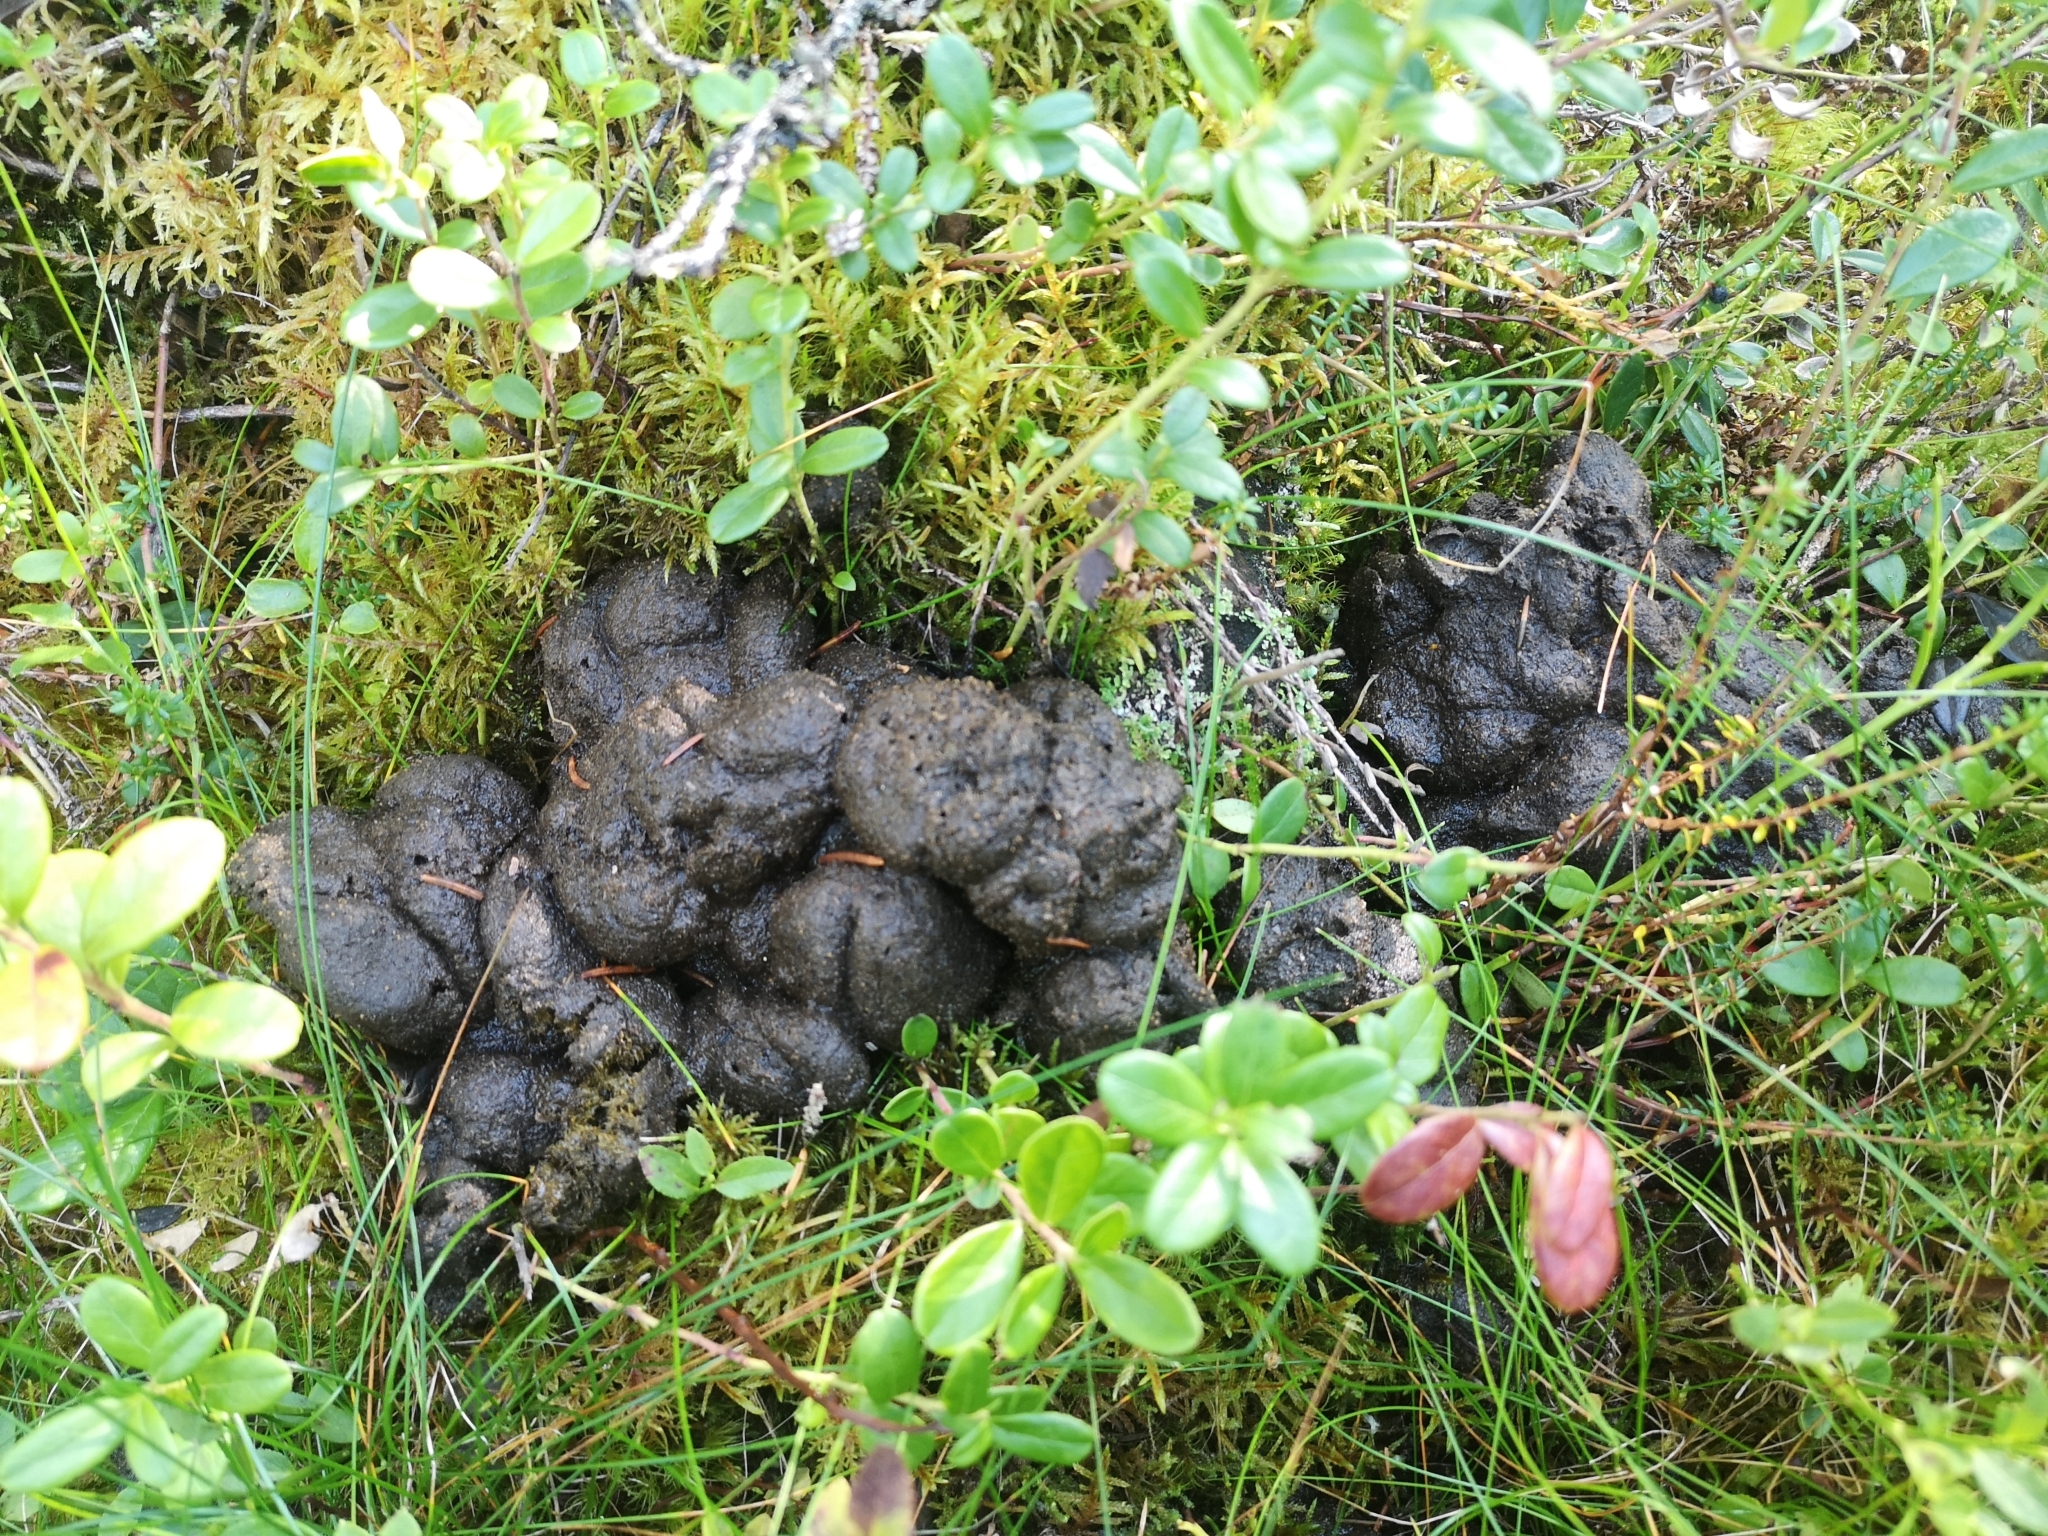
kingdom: Animalia
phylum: Chordata
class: Mammalia
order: Artiodactyla
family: Cervidae
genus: Alces
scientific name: Alces alces
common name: Moose
